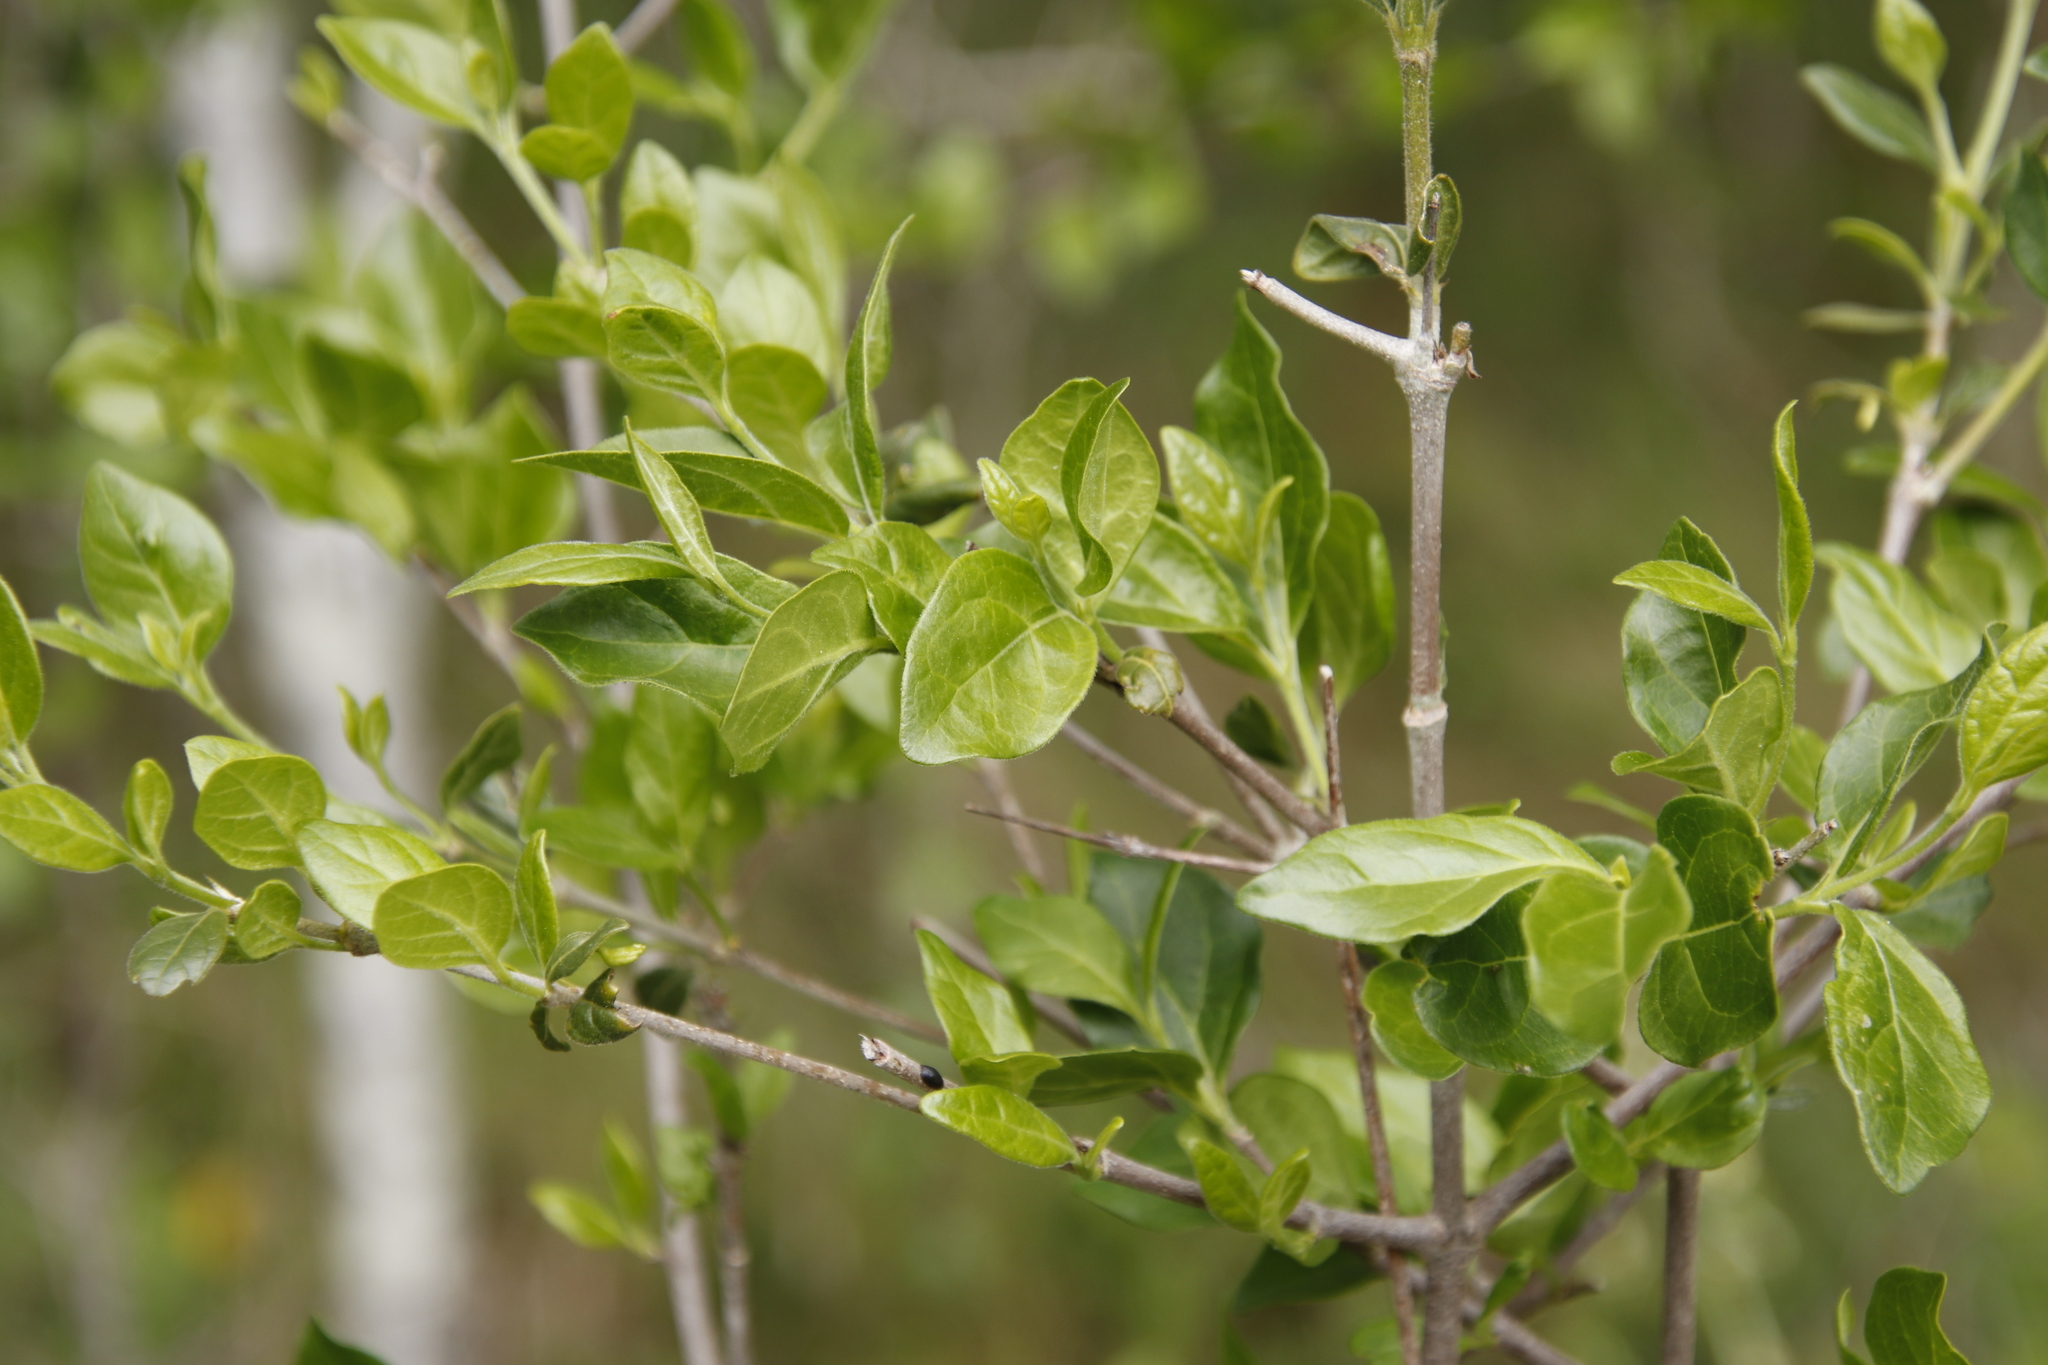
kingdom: Plantae
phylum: Tracheophyta
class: Magnoliopsida
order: Gentianales
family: Rubiaceae
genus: Canthium
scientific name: Canthium inerme
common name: Unarmed turkey-berry
